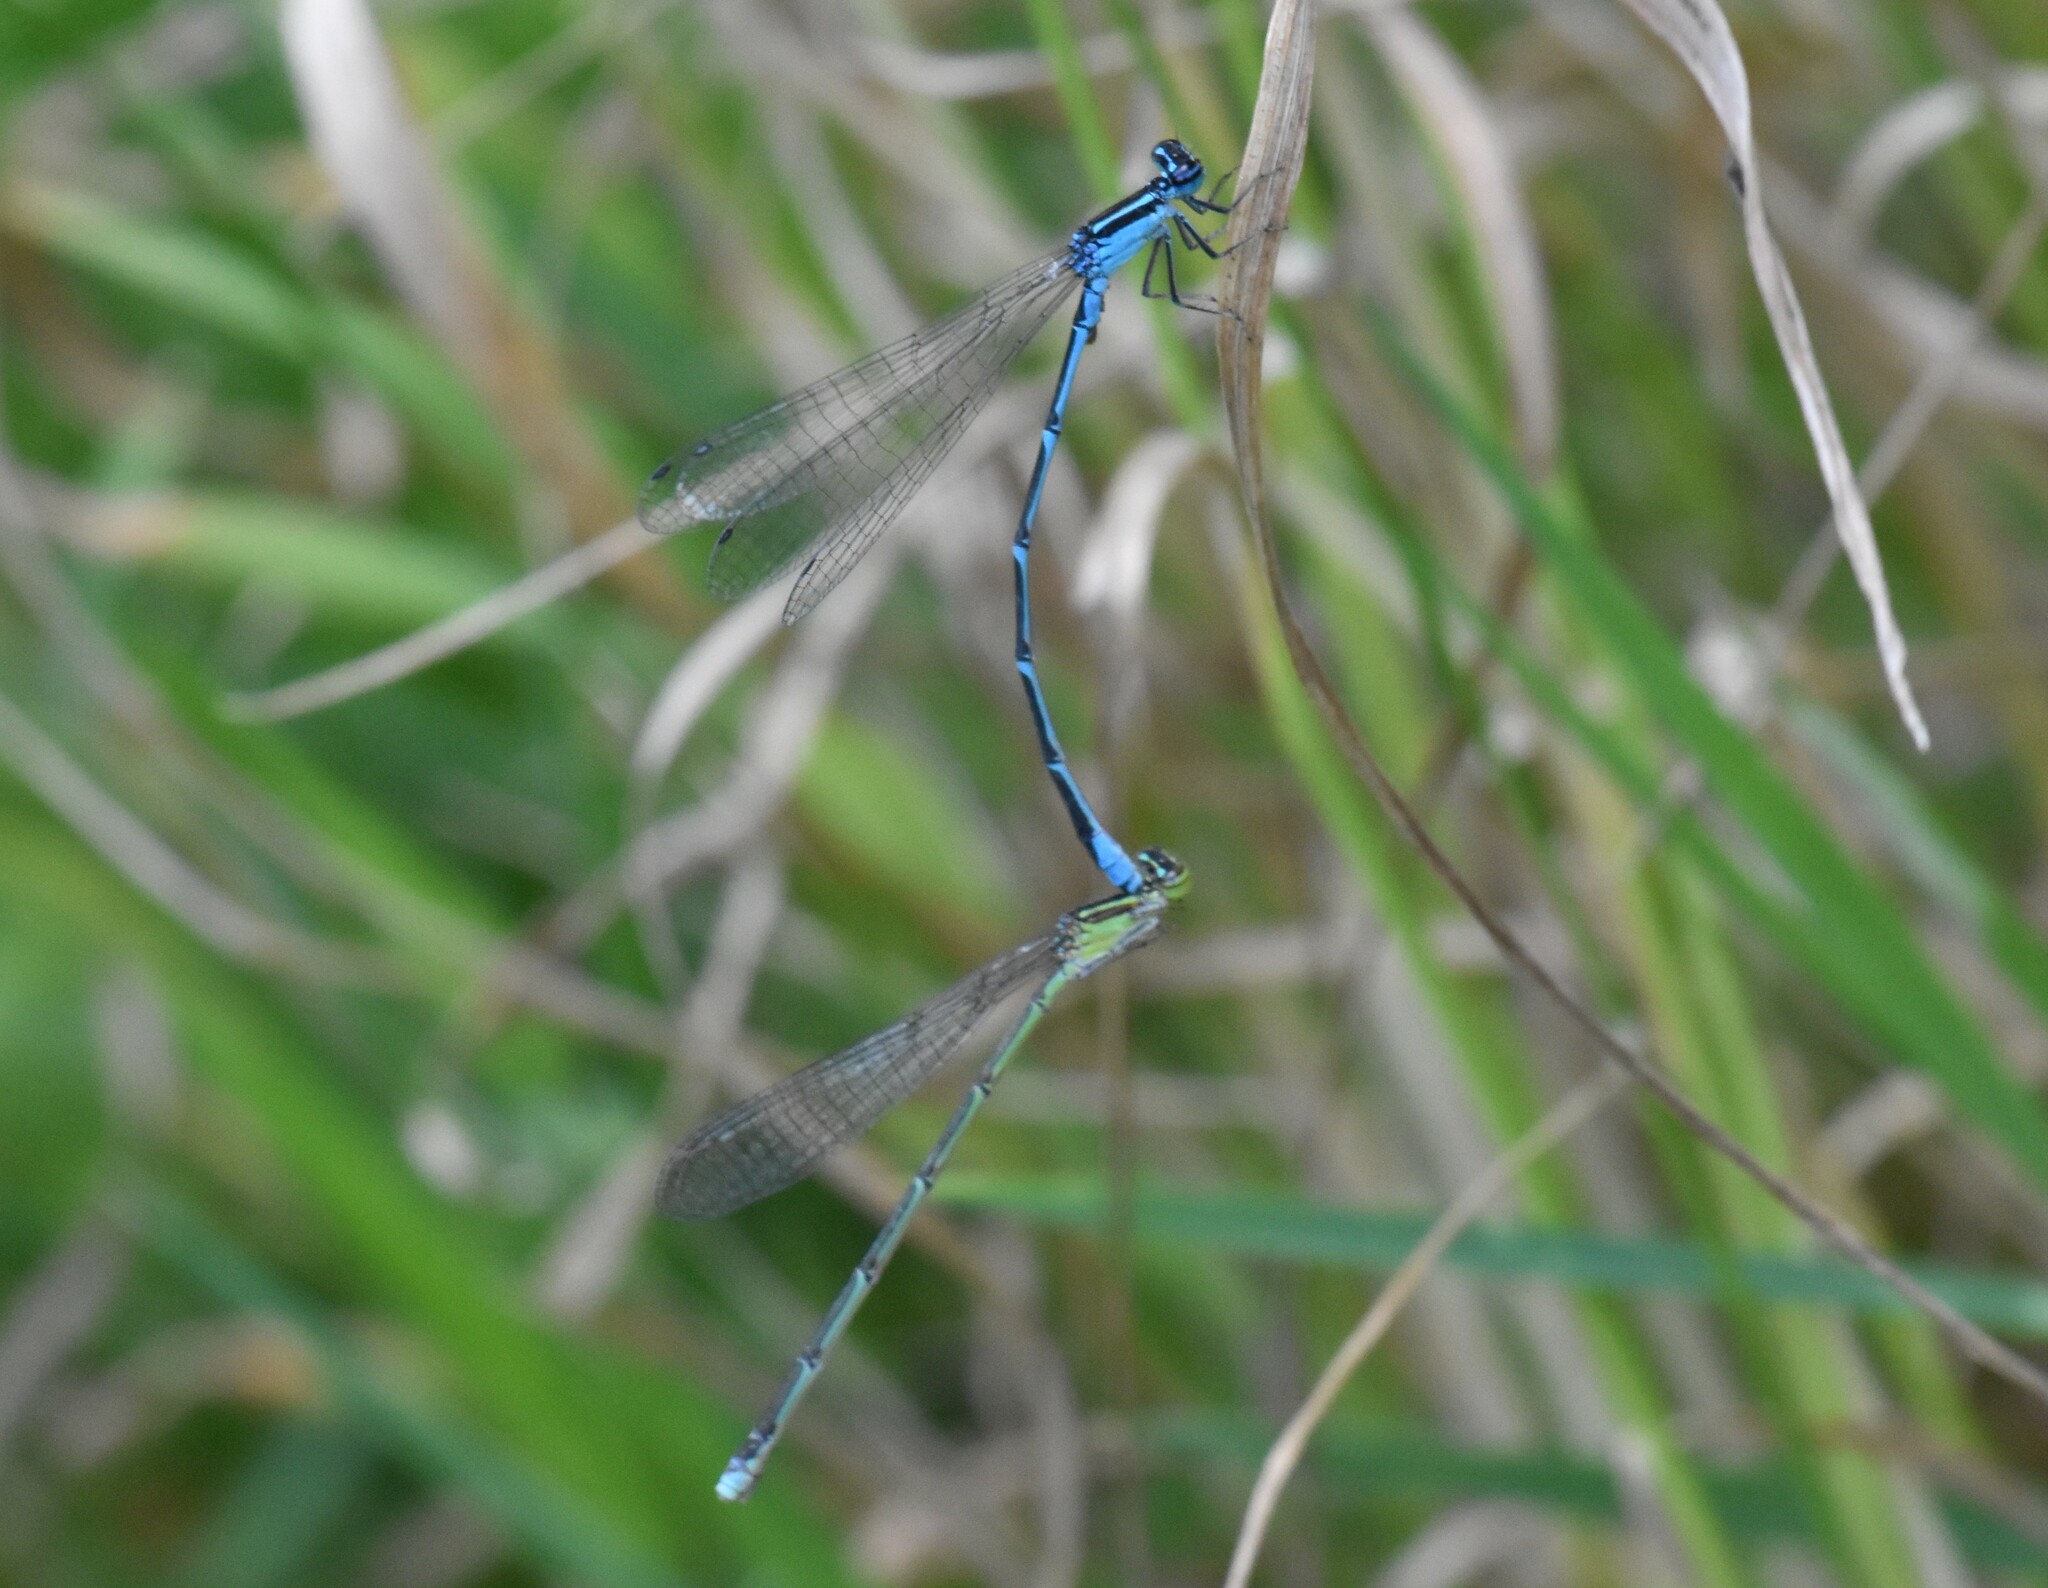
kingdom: Animalia
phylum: Arthropoda
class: Insecta
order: Odonata
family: Coenagrionidae
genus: Enallagma
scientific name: Enallagma exsulans
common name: Stream bluet
